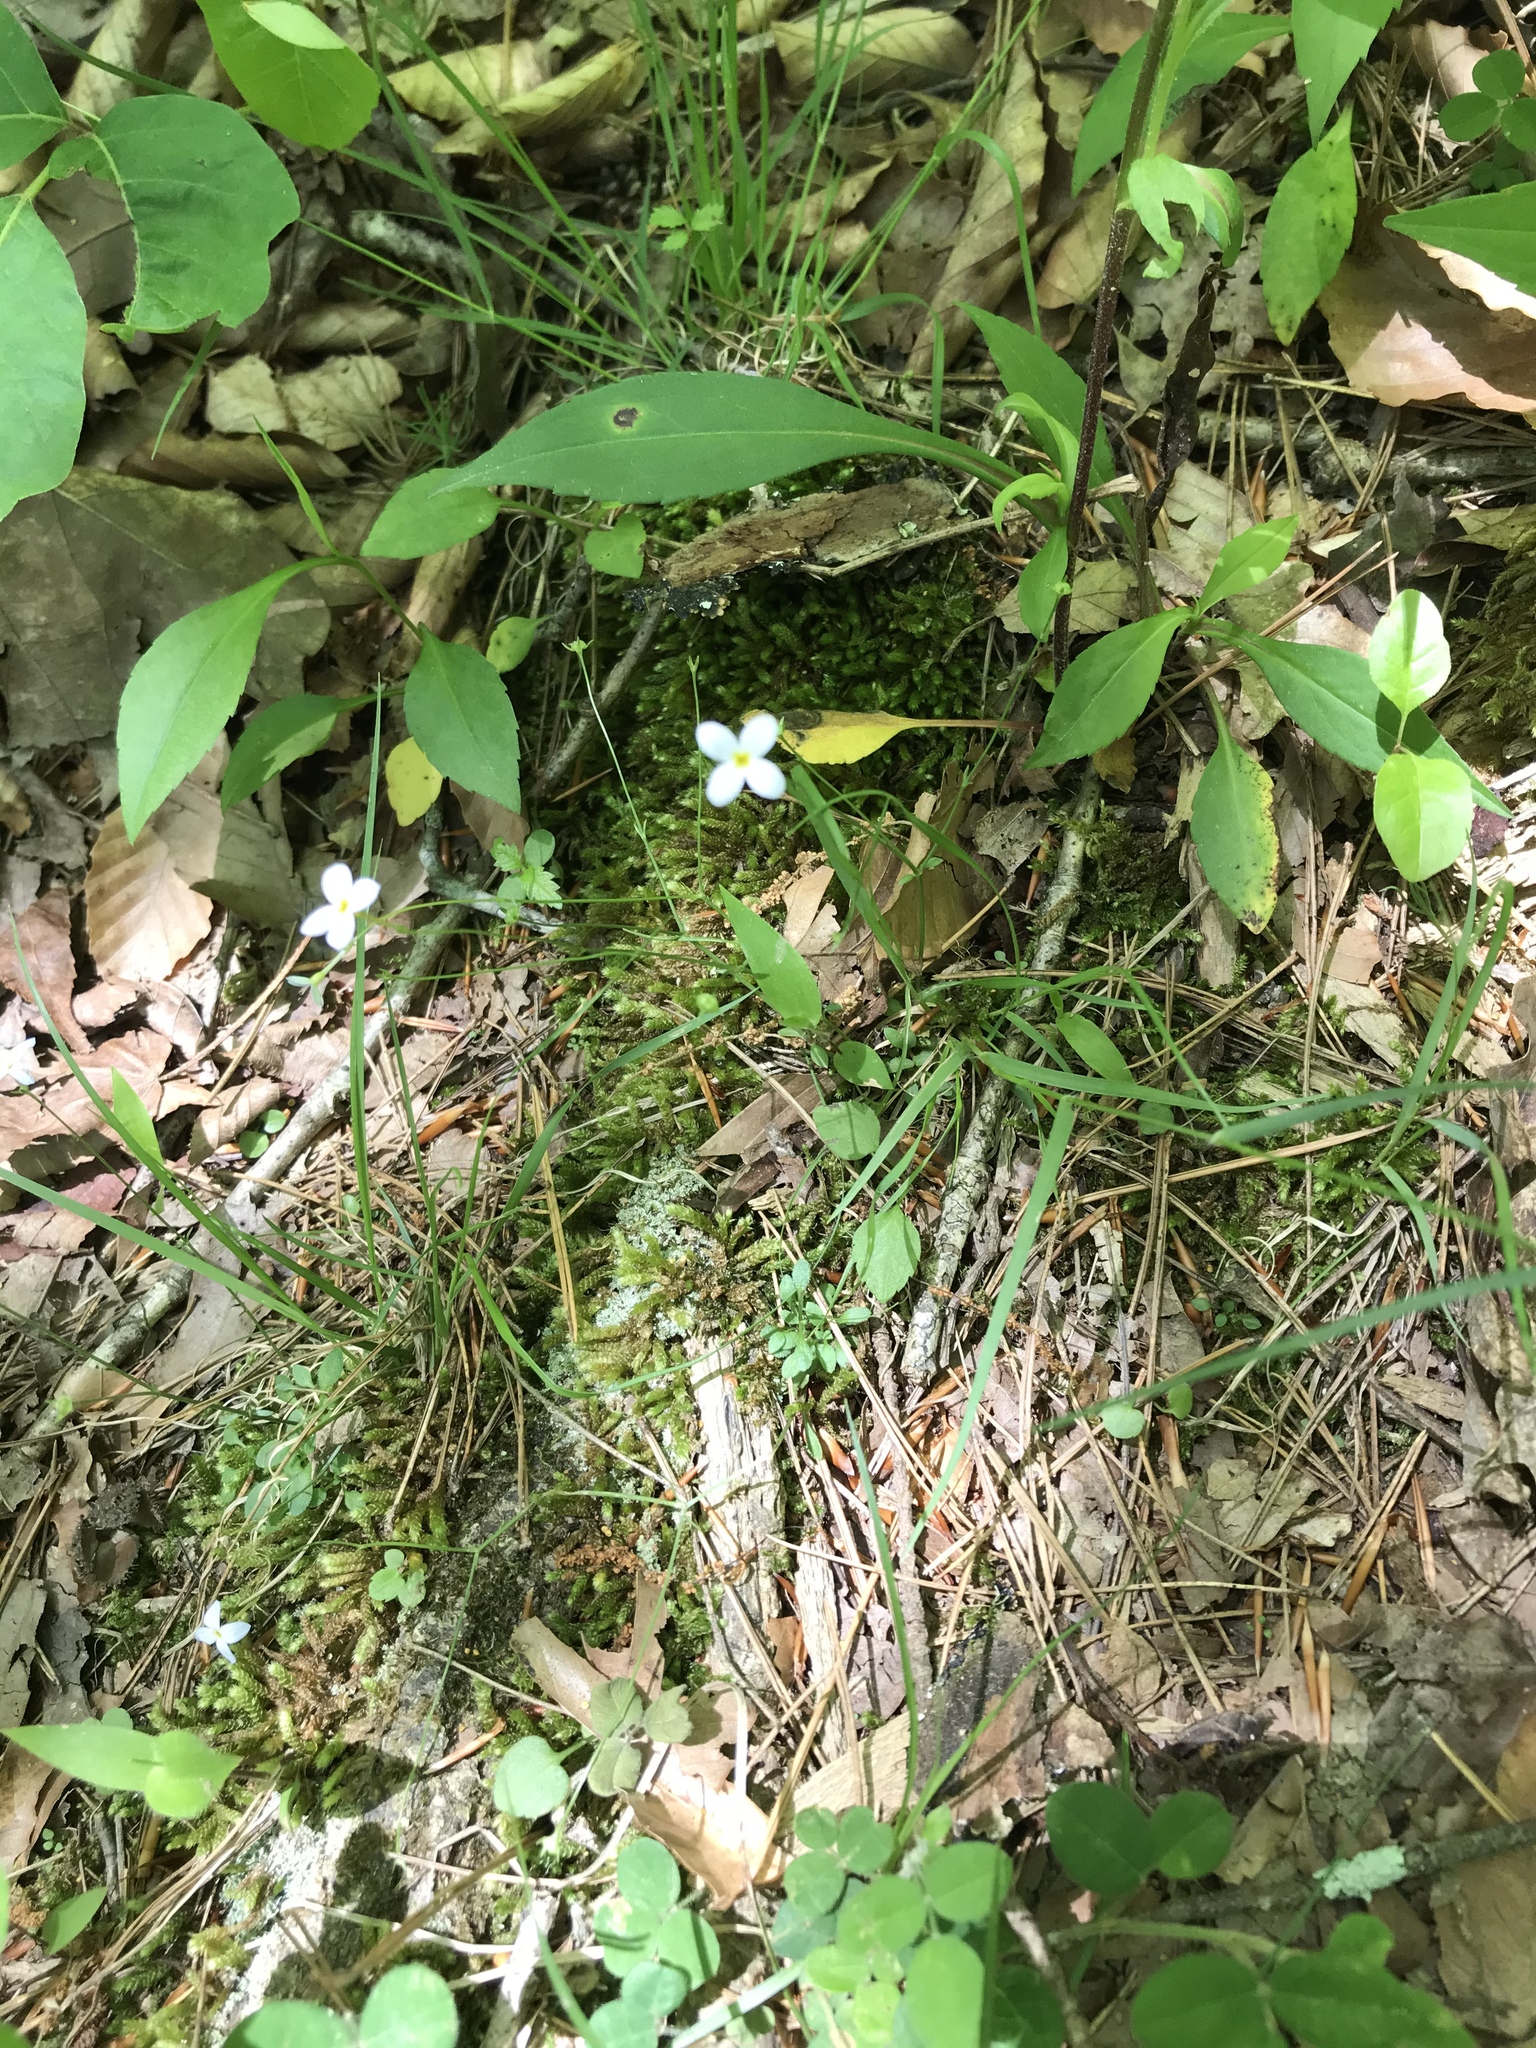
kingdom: Plantae
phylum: Tracheophyta
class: Magnoliopsida
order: Gentianales
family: Rubiaceae
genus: Houstonia
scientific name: Houstonia caerulea
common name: Bluets
